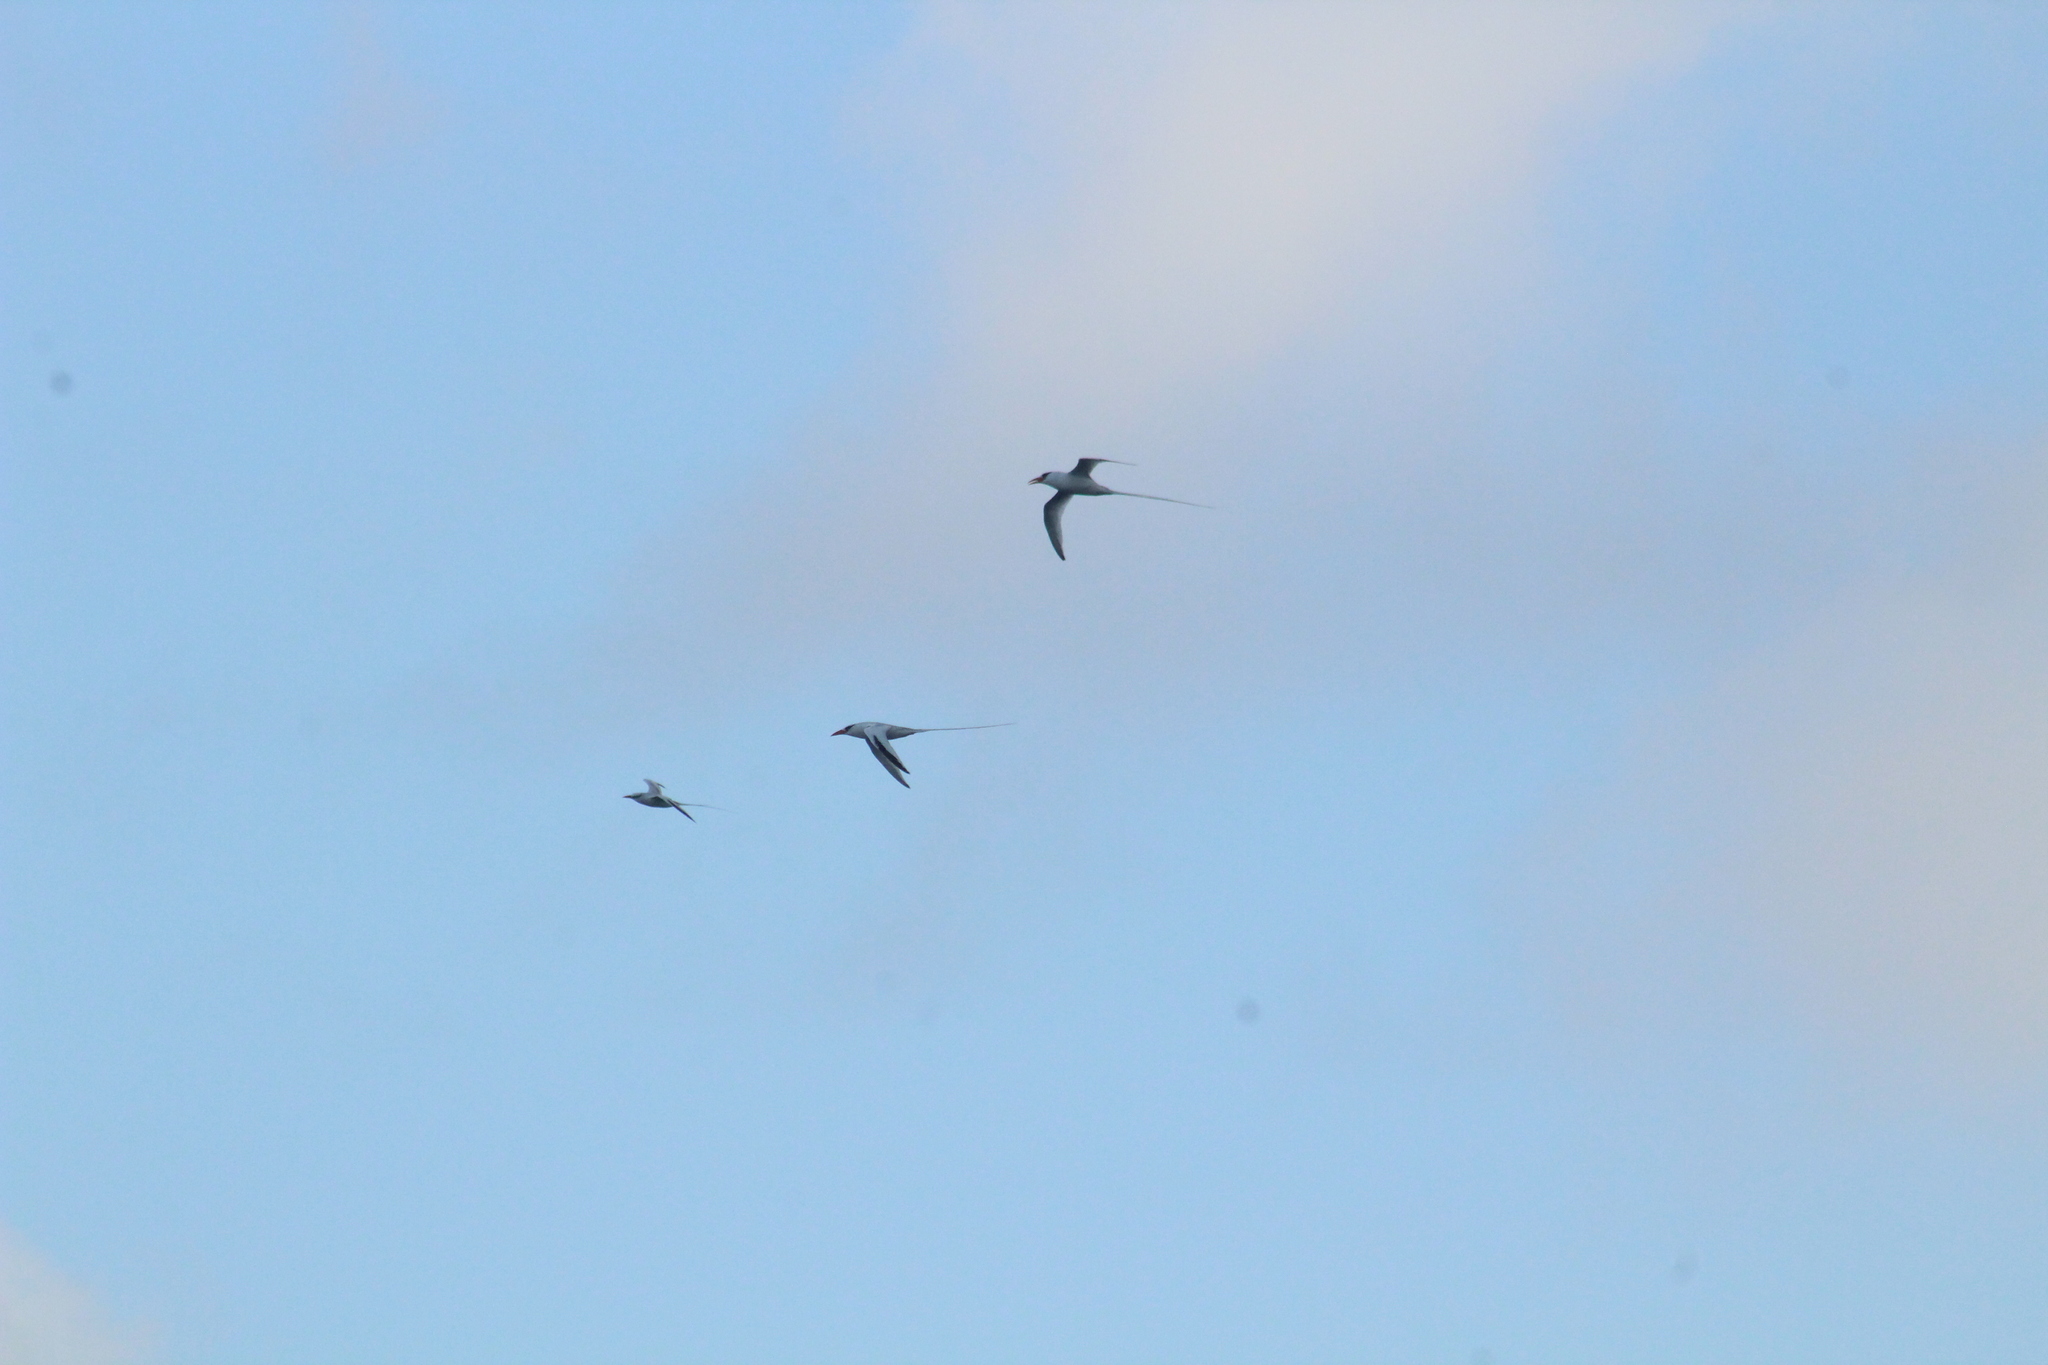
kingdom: Animalia
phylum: Chordata
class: Aves
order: Phaethontiformes
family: Phaethontidae
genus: Phaethon
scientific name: Phaethon aethereus
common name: Red-billed tropicbird
